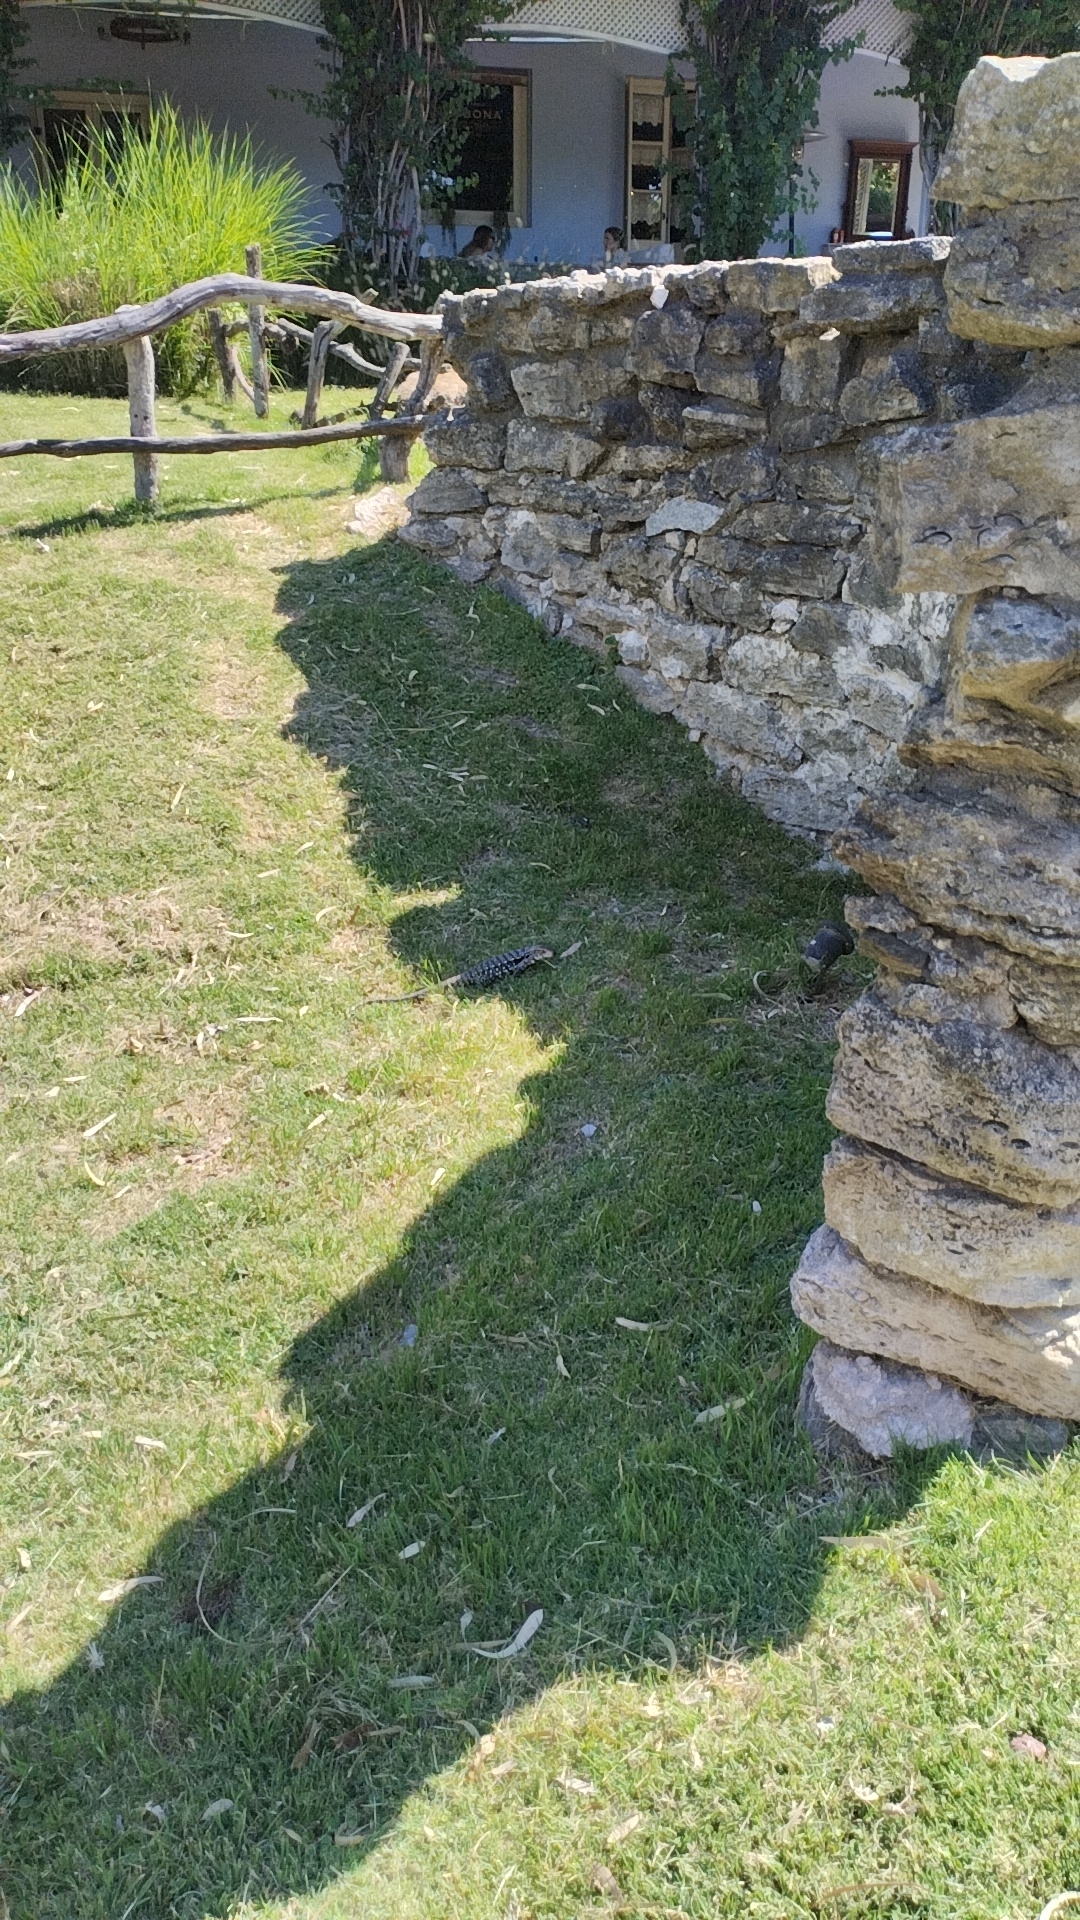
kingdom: Animalia
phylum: Chordata
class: Squamata
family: Teiidae
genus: Salvator
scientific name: Salvator merianae
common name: Argentine black and white tegu
